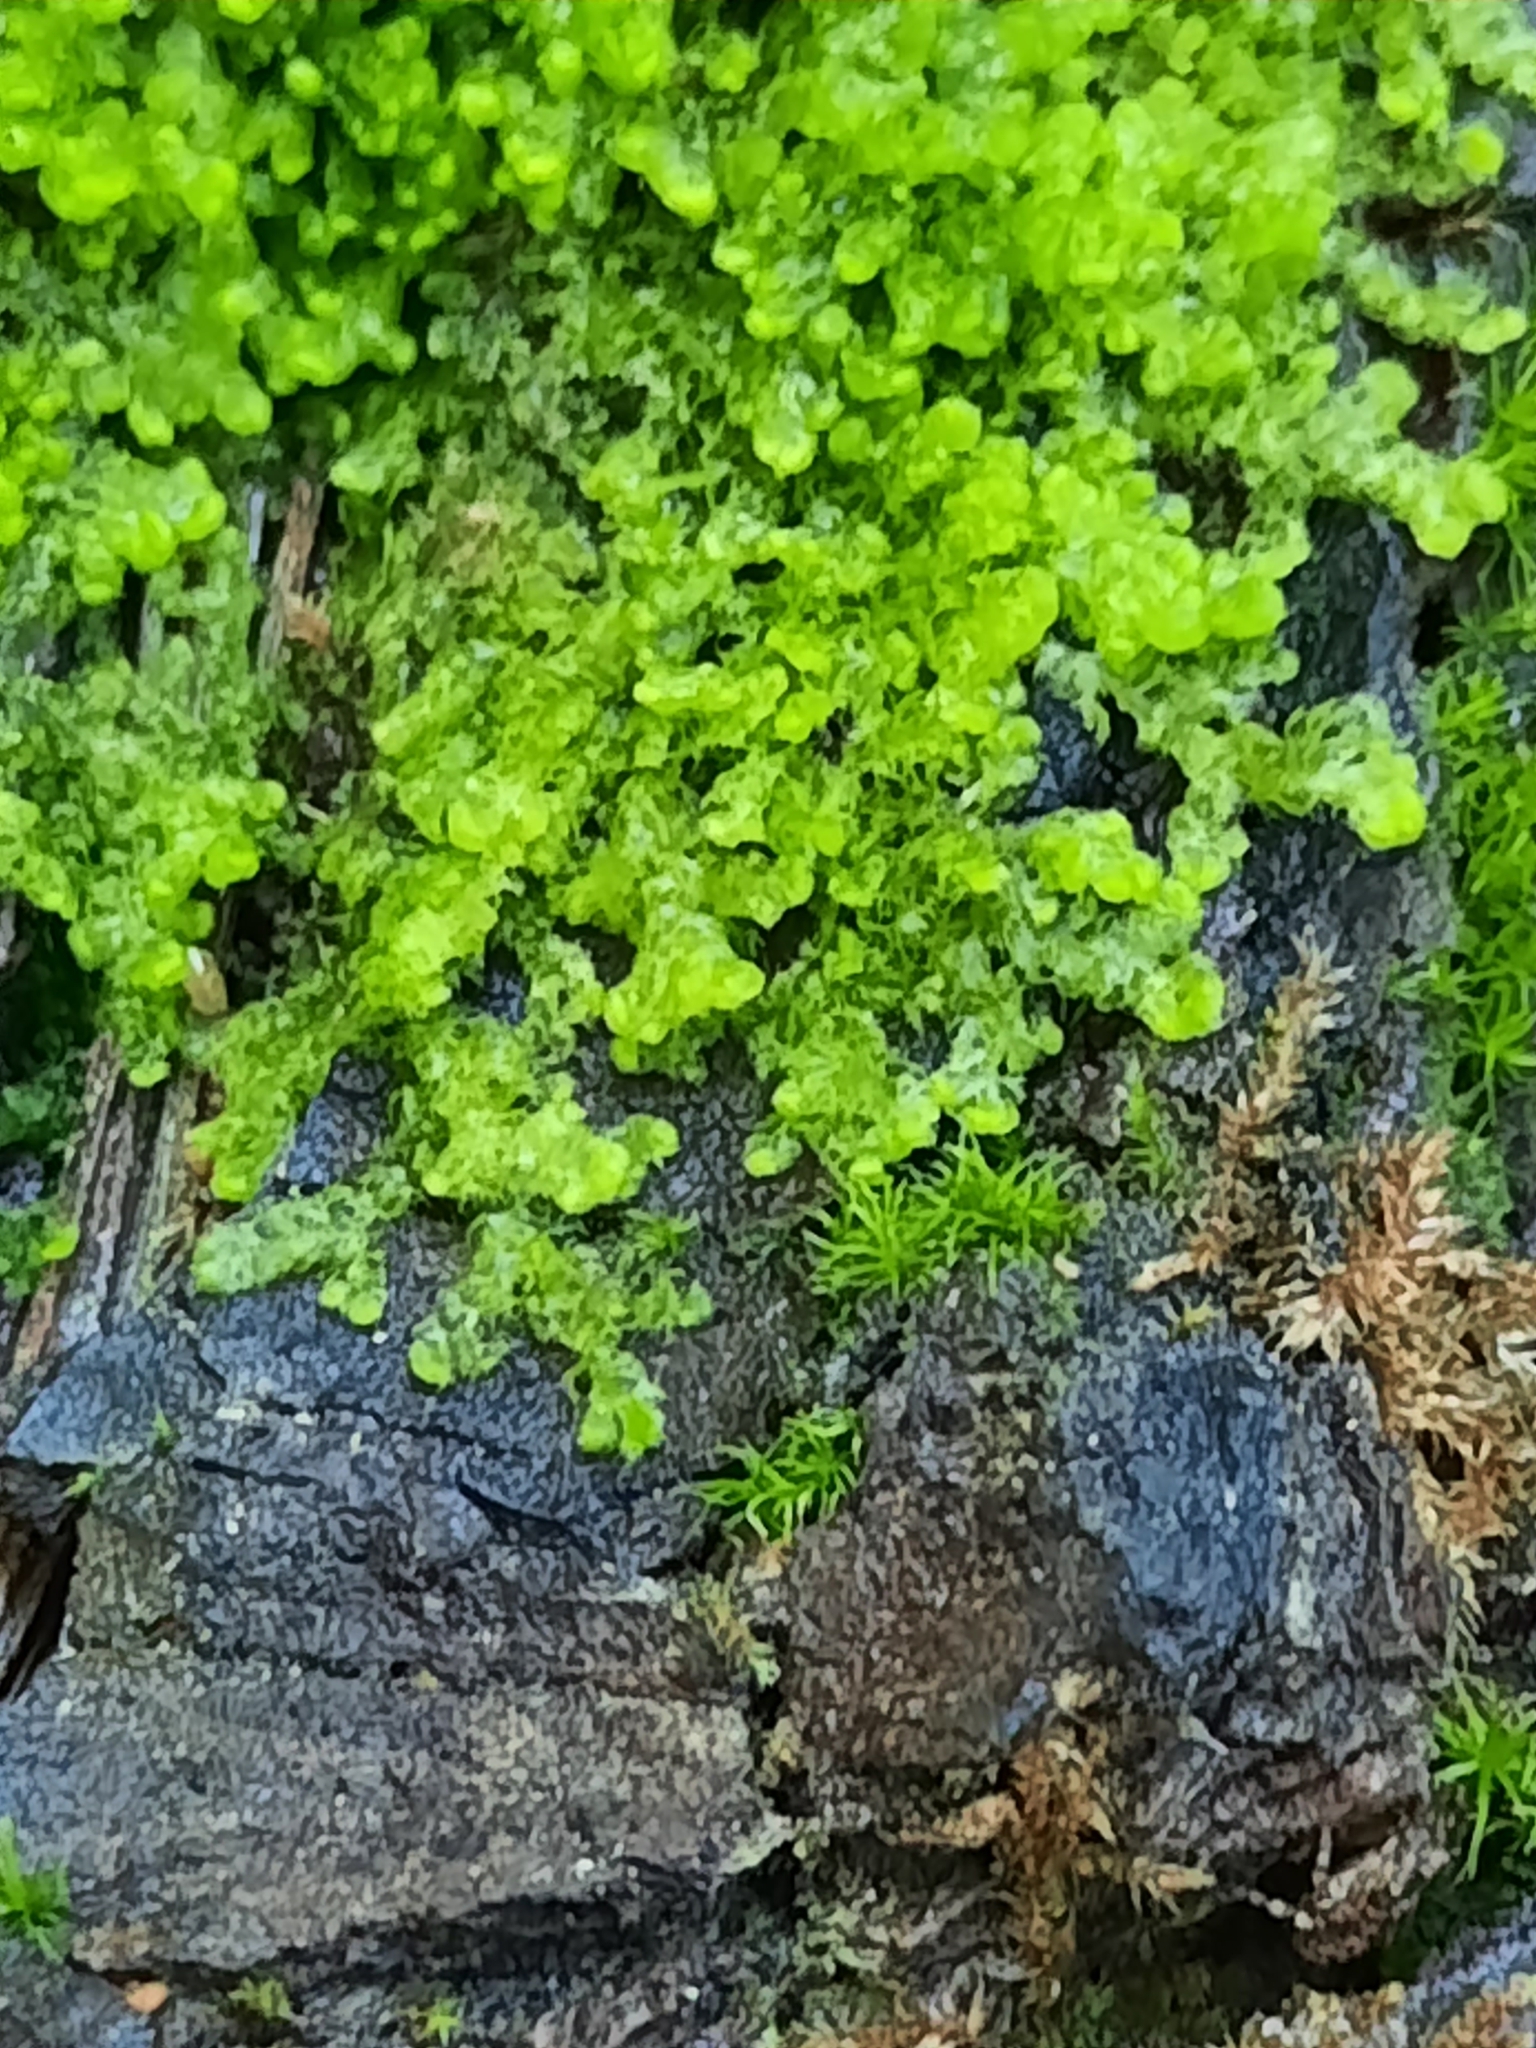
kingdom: Plantae
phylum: Marchantiophyta
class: Jungermanniopsida
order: Ptilidiales
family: Ptilidiaceae
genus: Ptilidium
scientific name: Ptilidium pulcherrimum
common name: Tree fringewort
